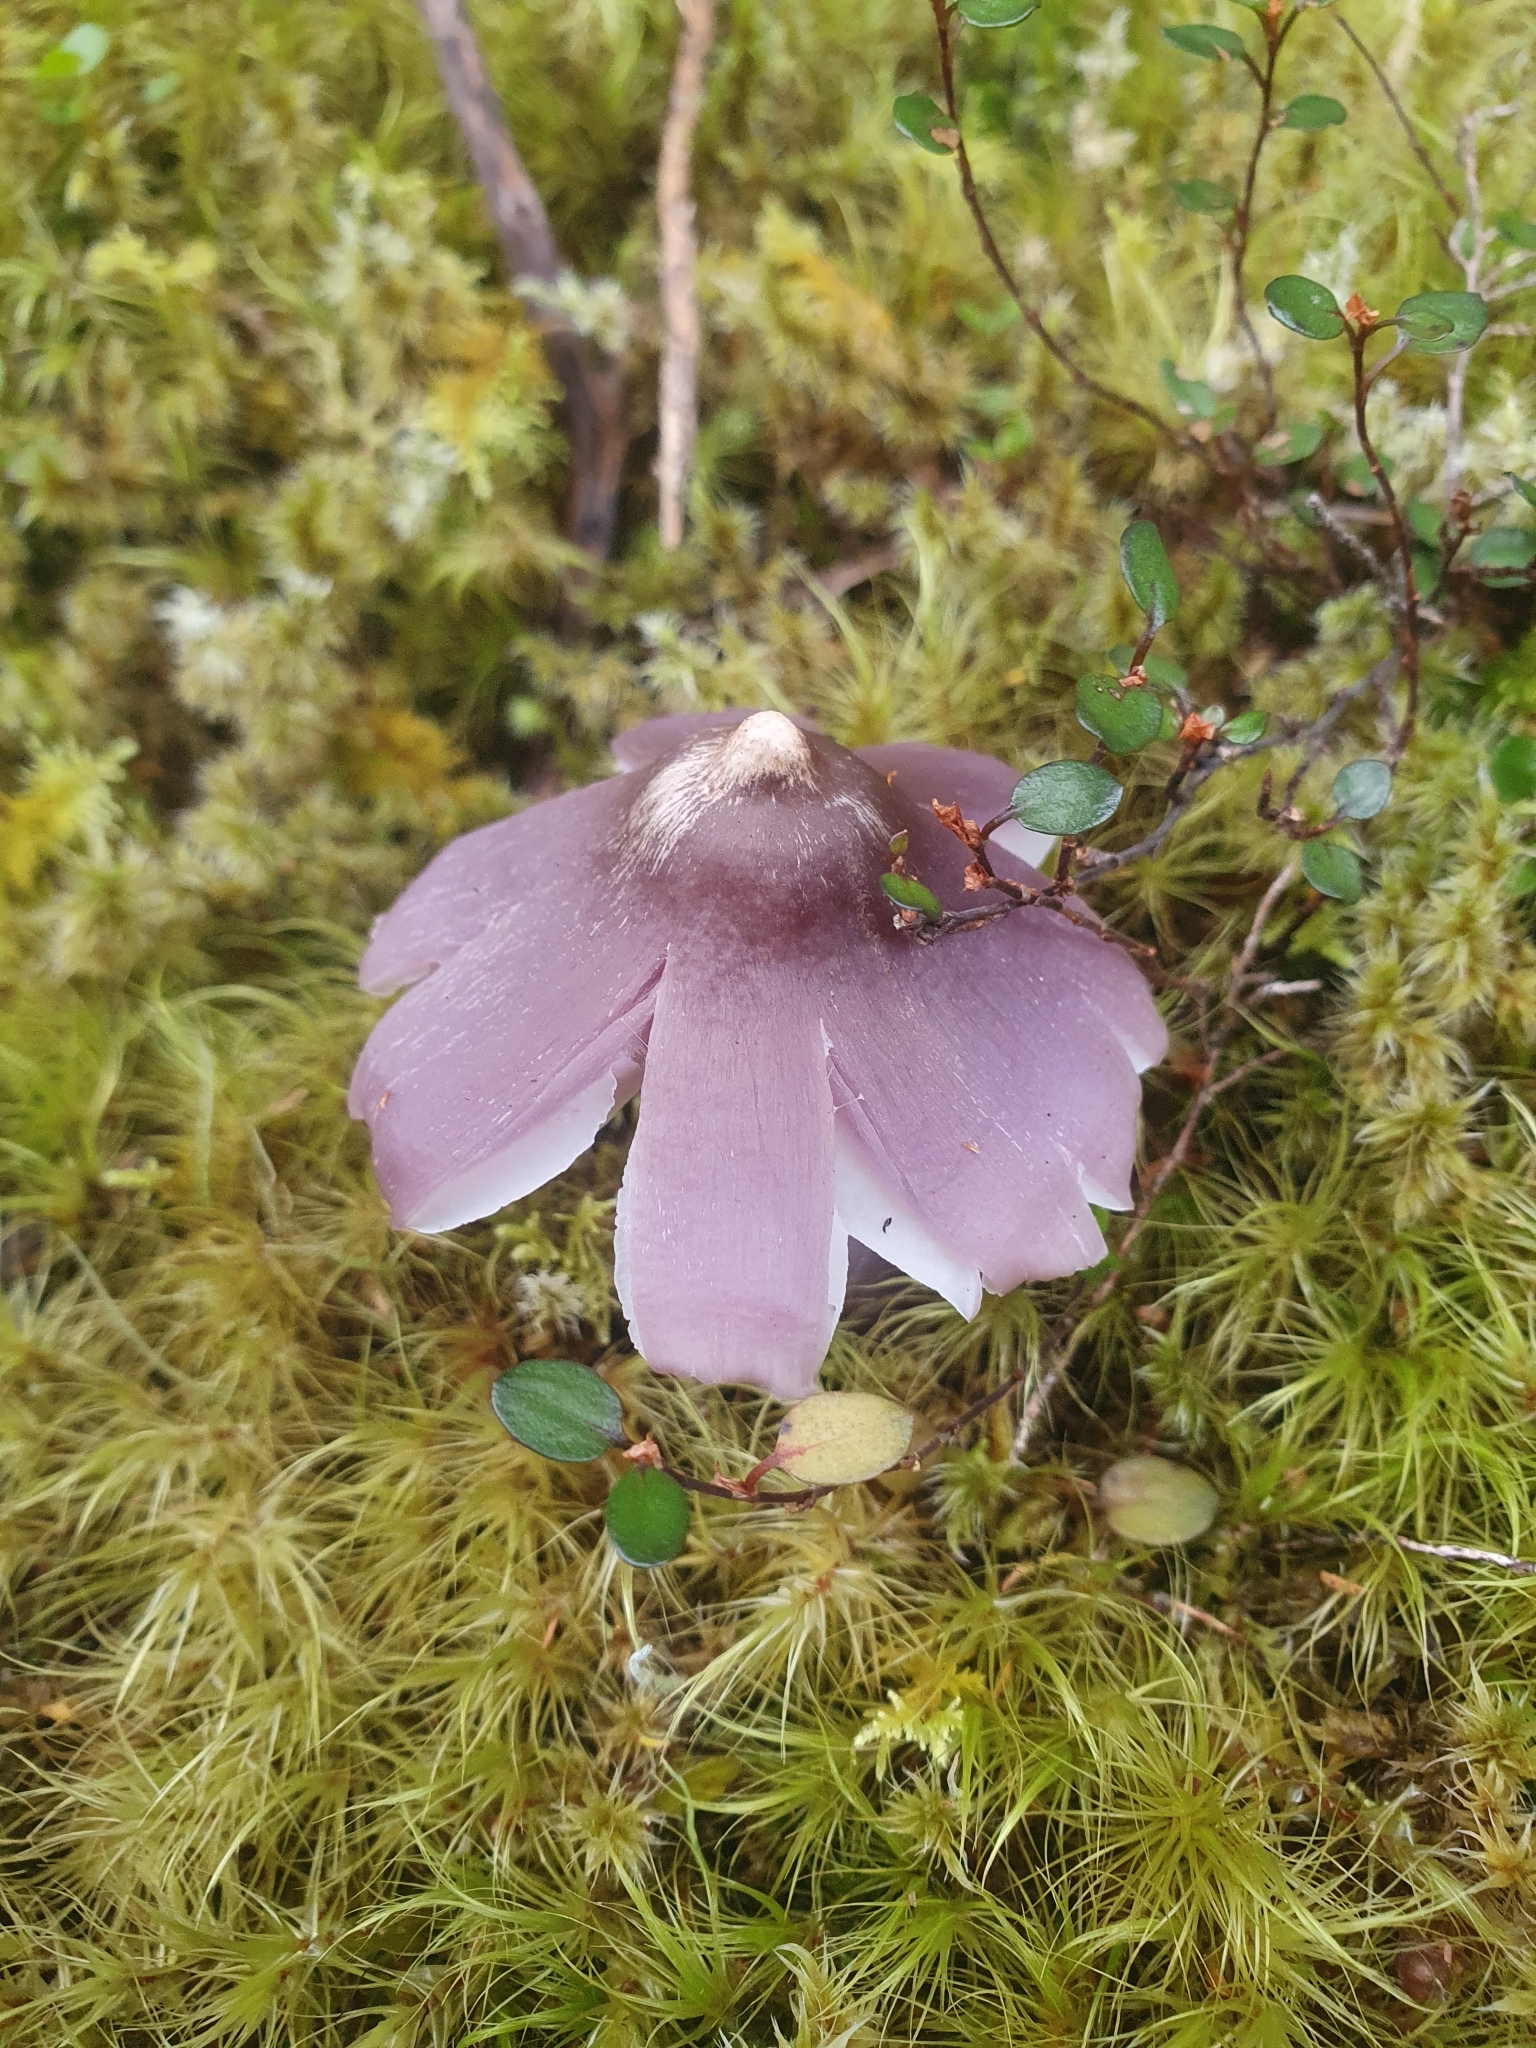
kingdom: Fungi
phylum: Basidiomycota
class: Agaricomycetes
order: Agaricales
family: Hygrophoraceae
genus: Porpolomopsis
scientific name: Porpolomopsis lewelliniae
